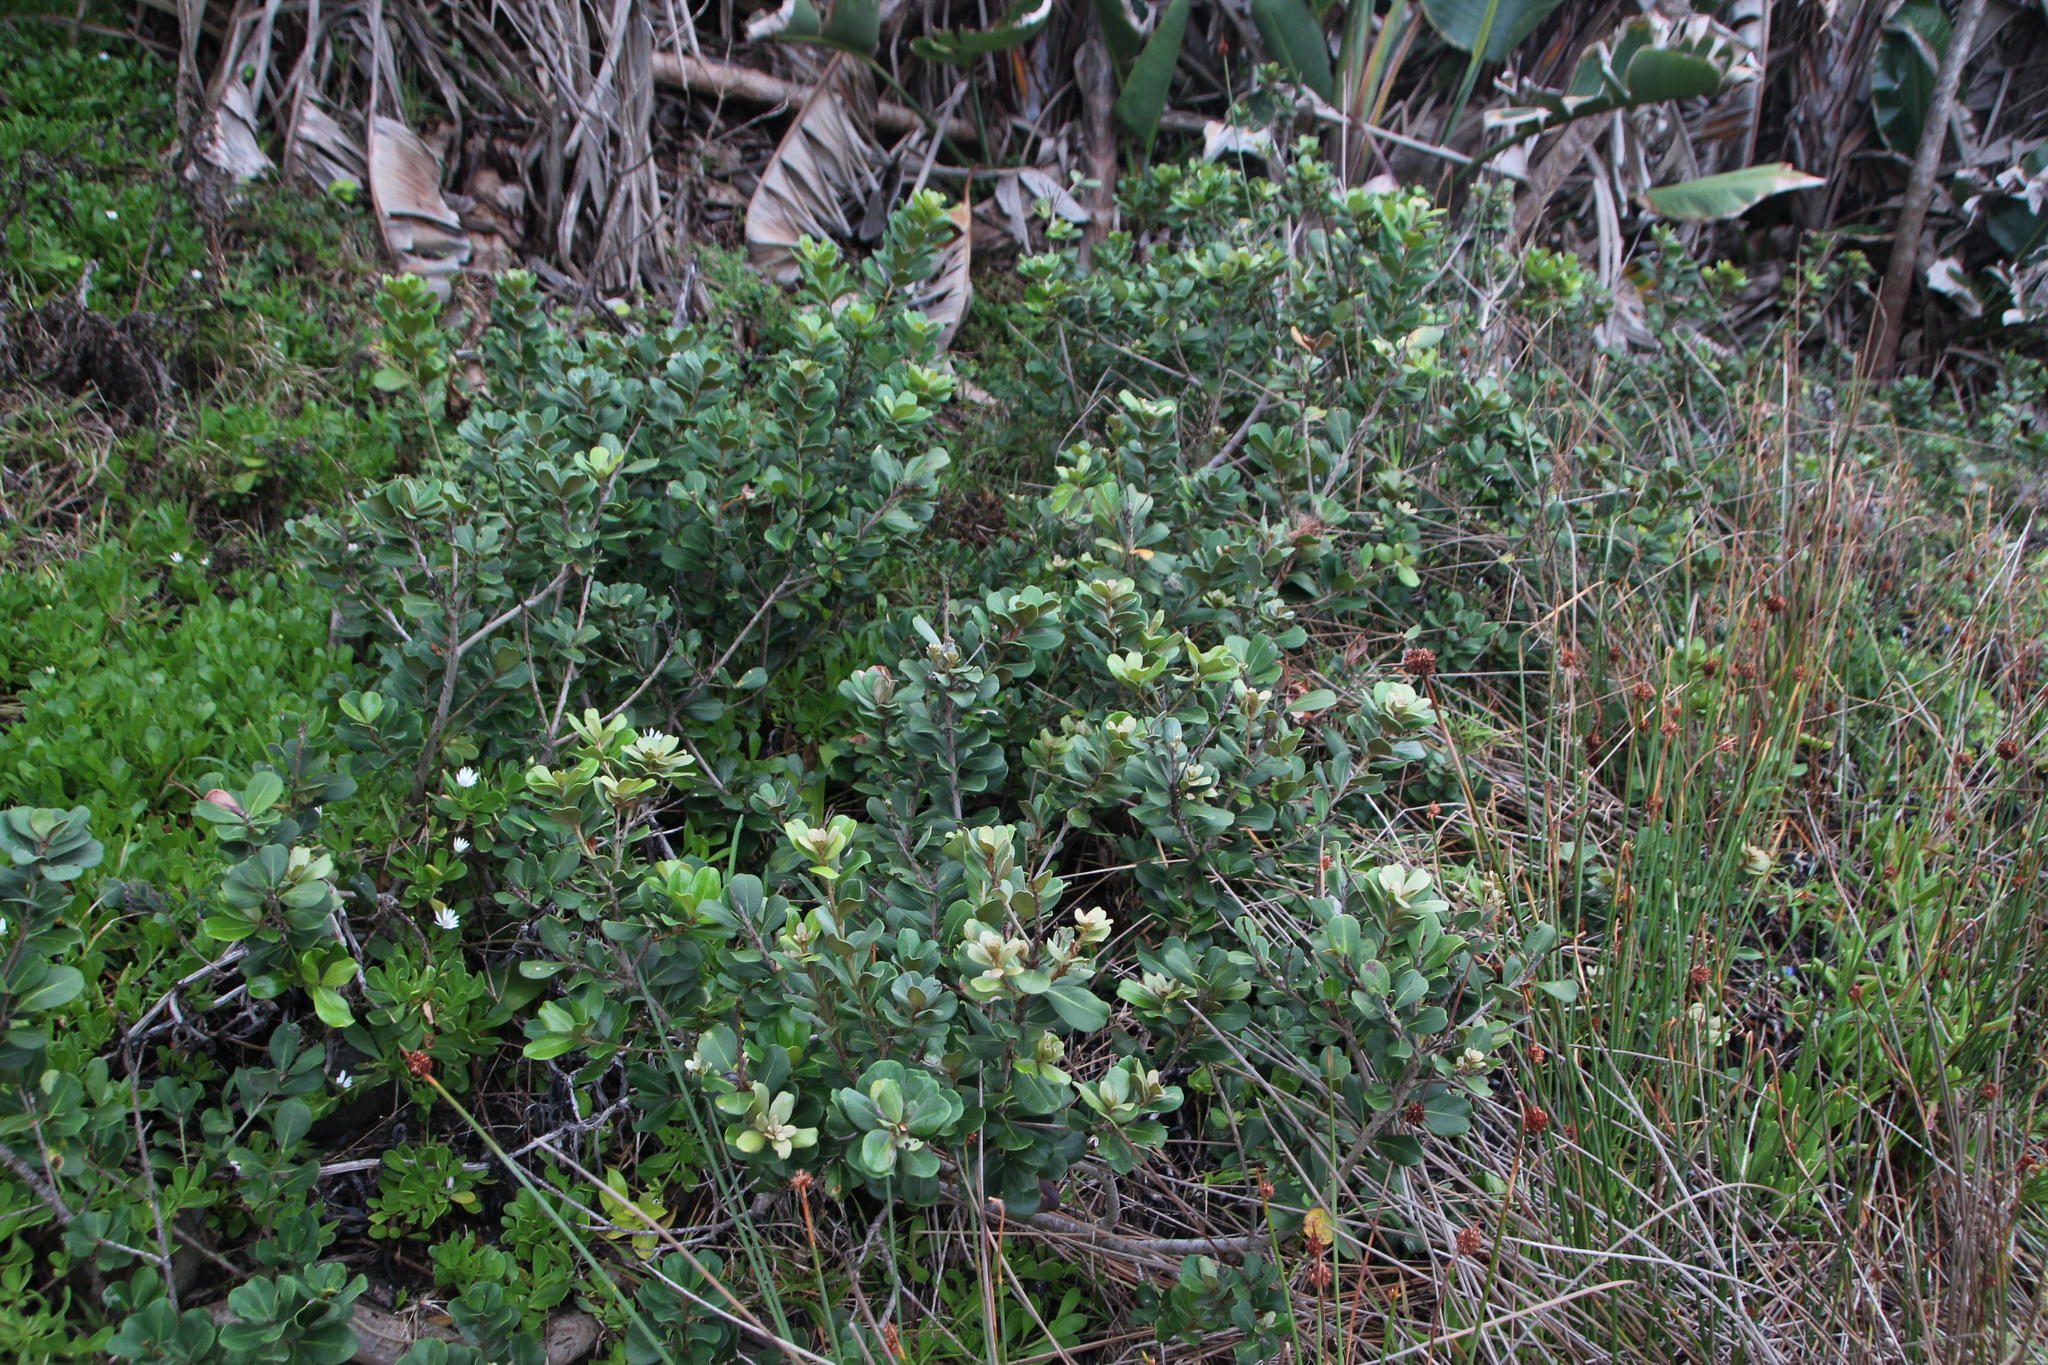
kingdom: Plantae
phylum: Tracheophyta
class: Magnoliopsida
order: Ericales
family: Sapotaceae
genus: Mimusops
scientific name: Mimusops caffra
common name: Coastal red milkwood
